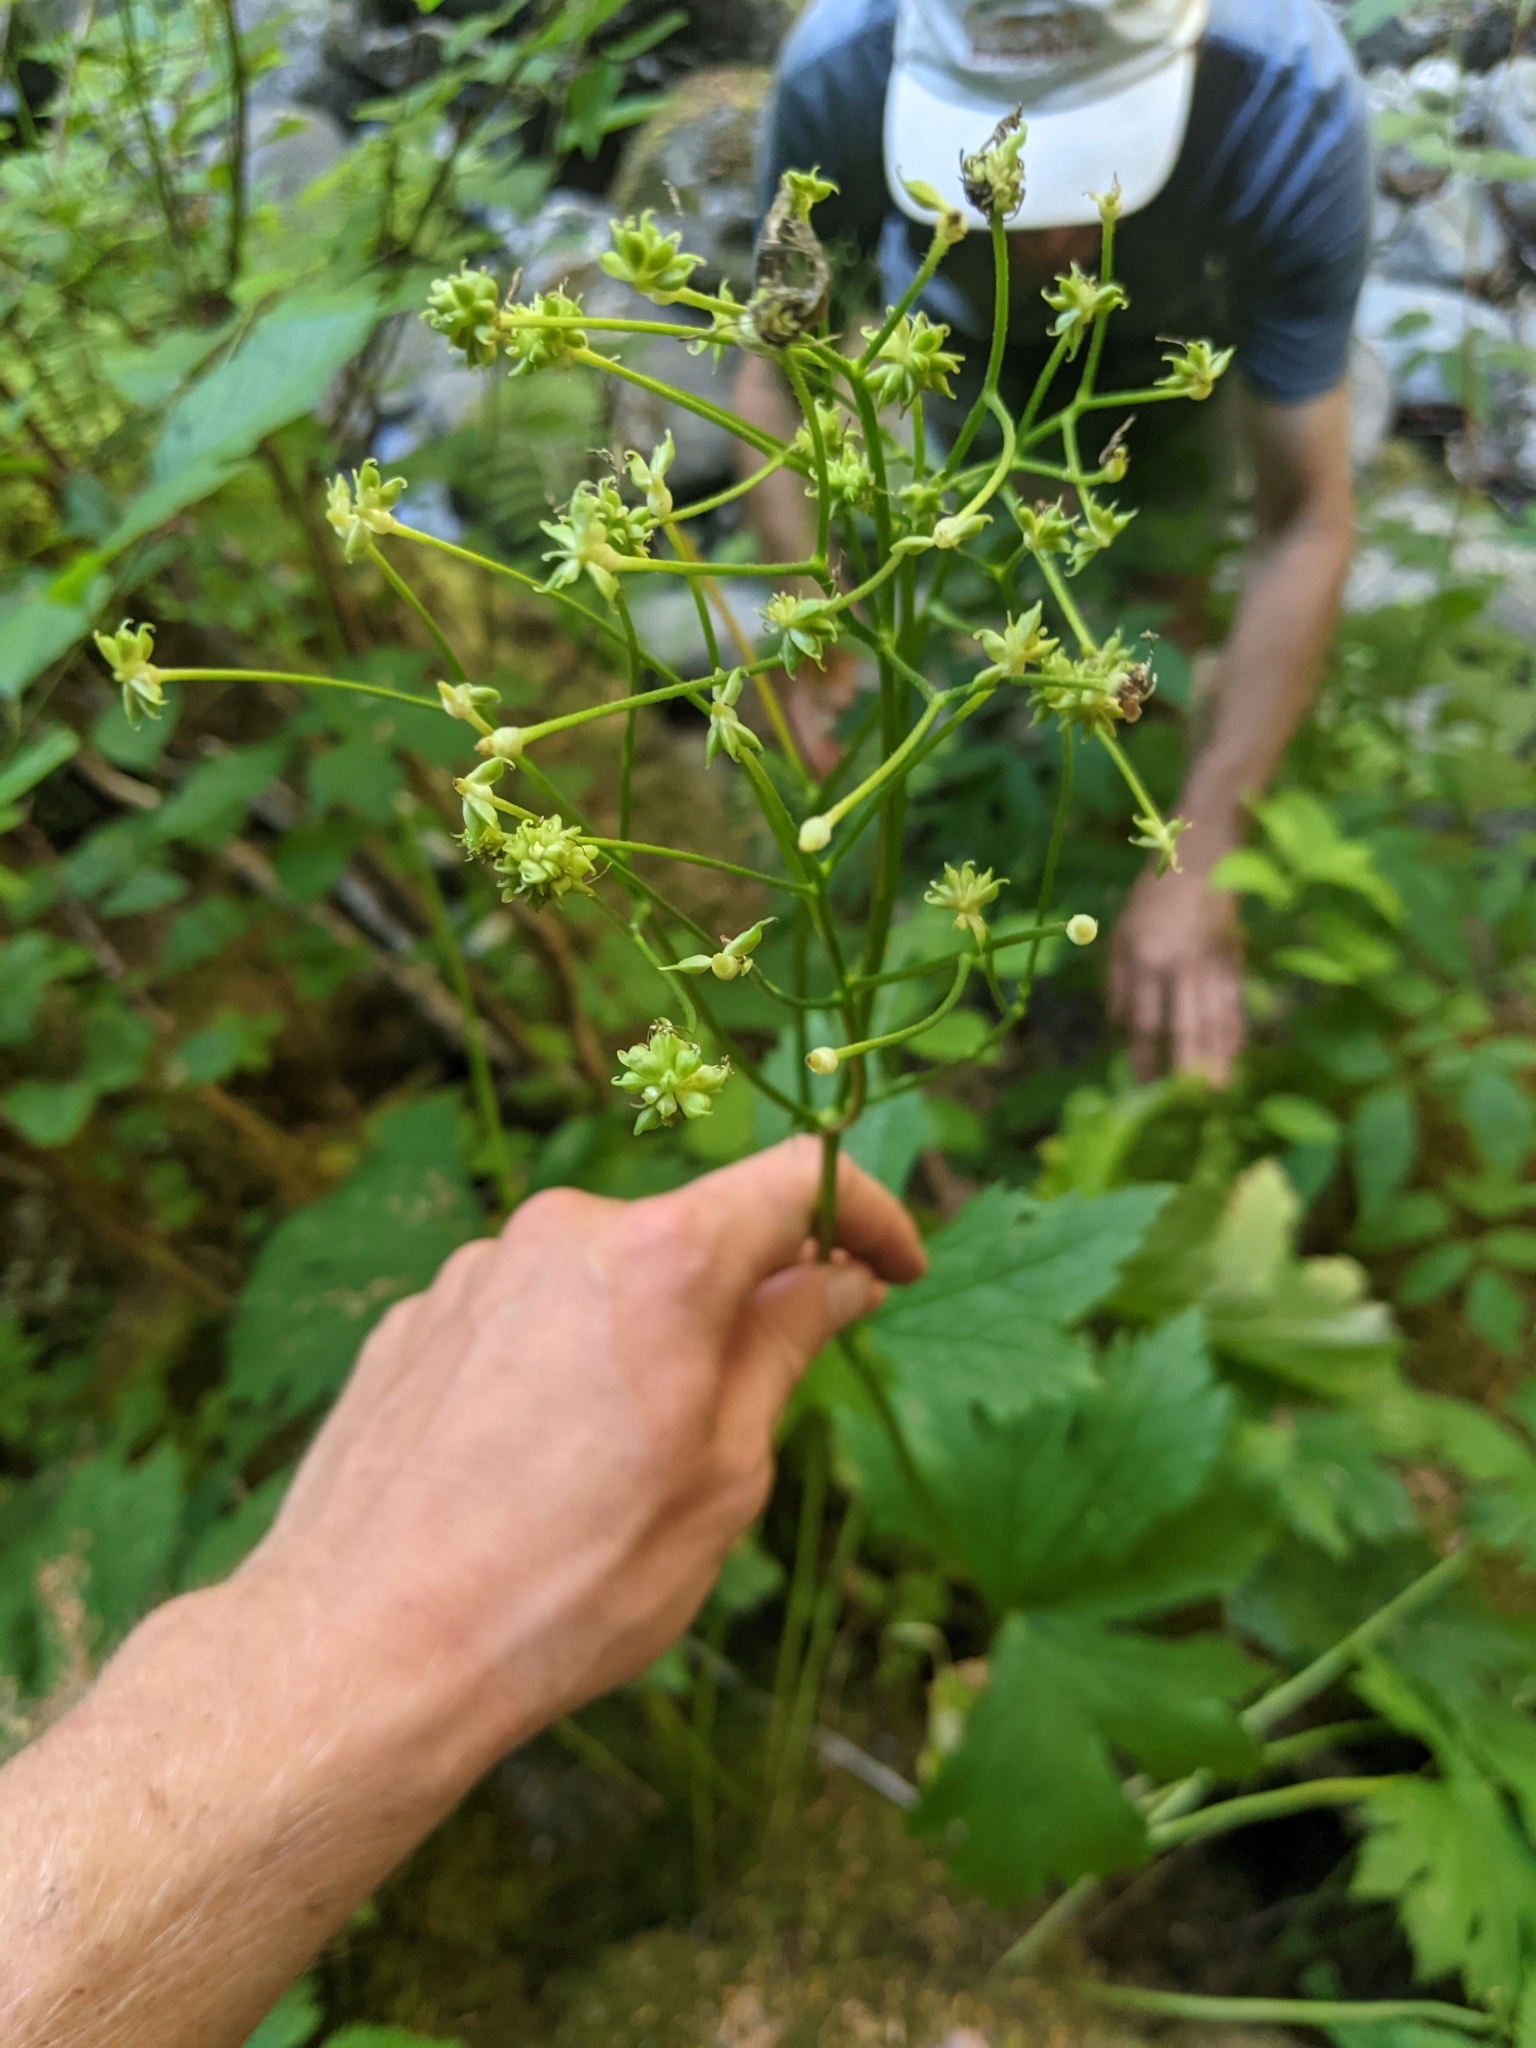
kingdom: Plantae
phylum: Tracheophyta
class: Magnoliopsida
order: Ranunculales
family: Ranunculaceae
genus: Trautvetteria
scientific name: Trautvetteria carolinensis
